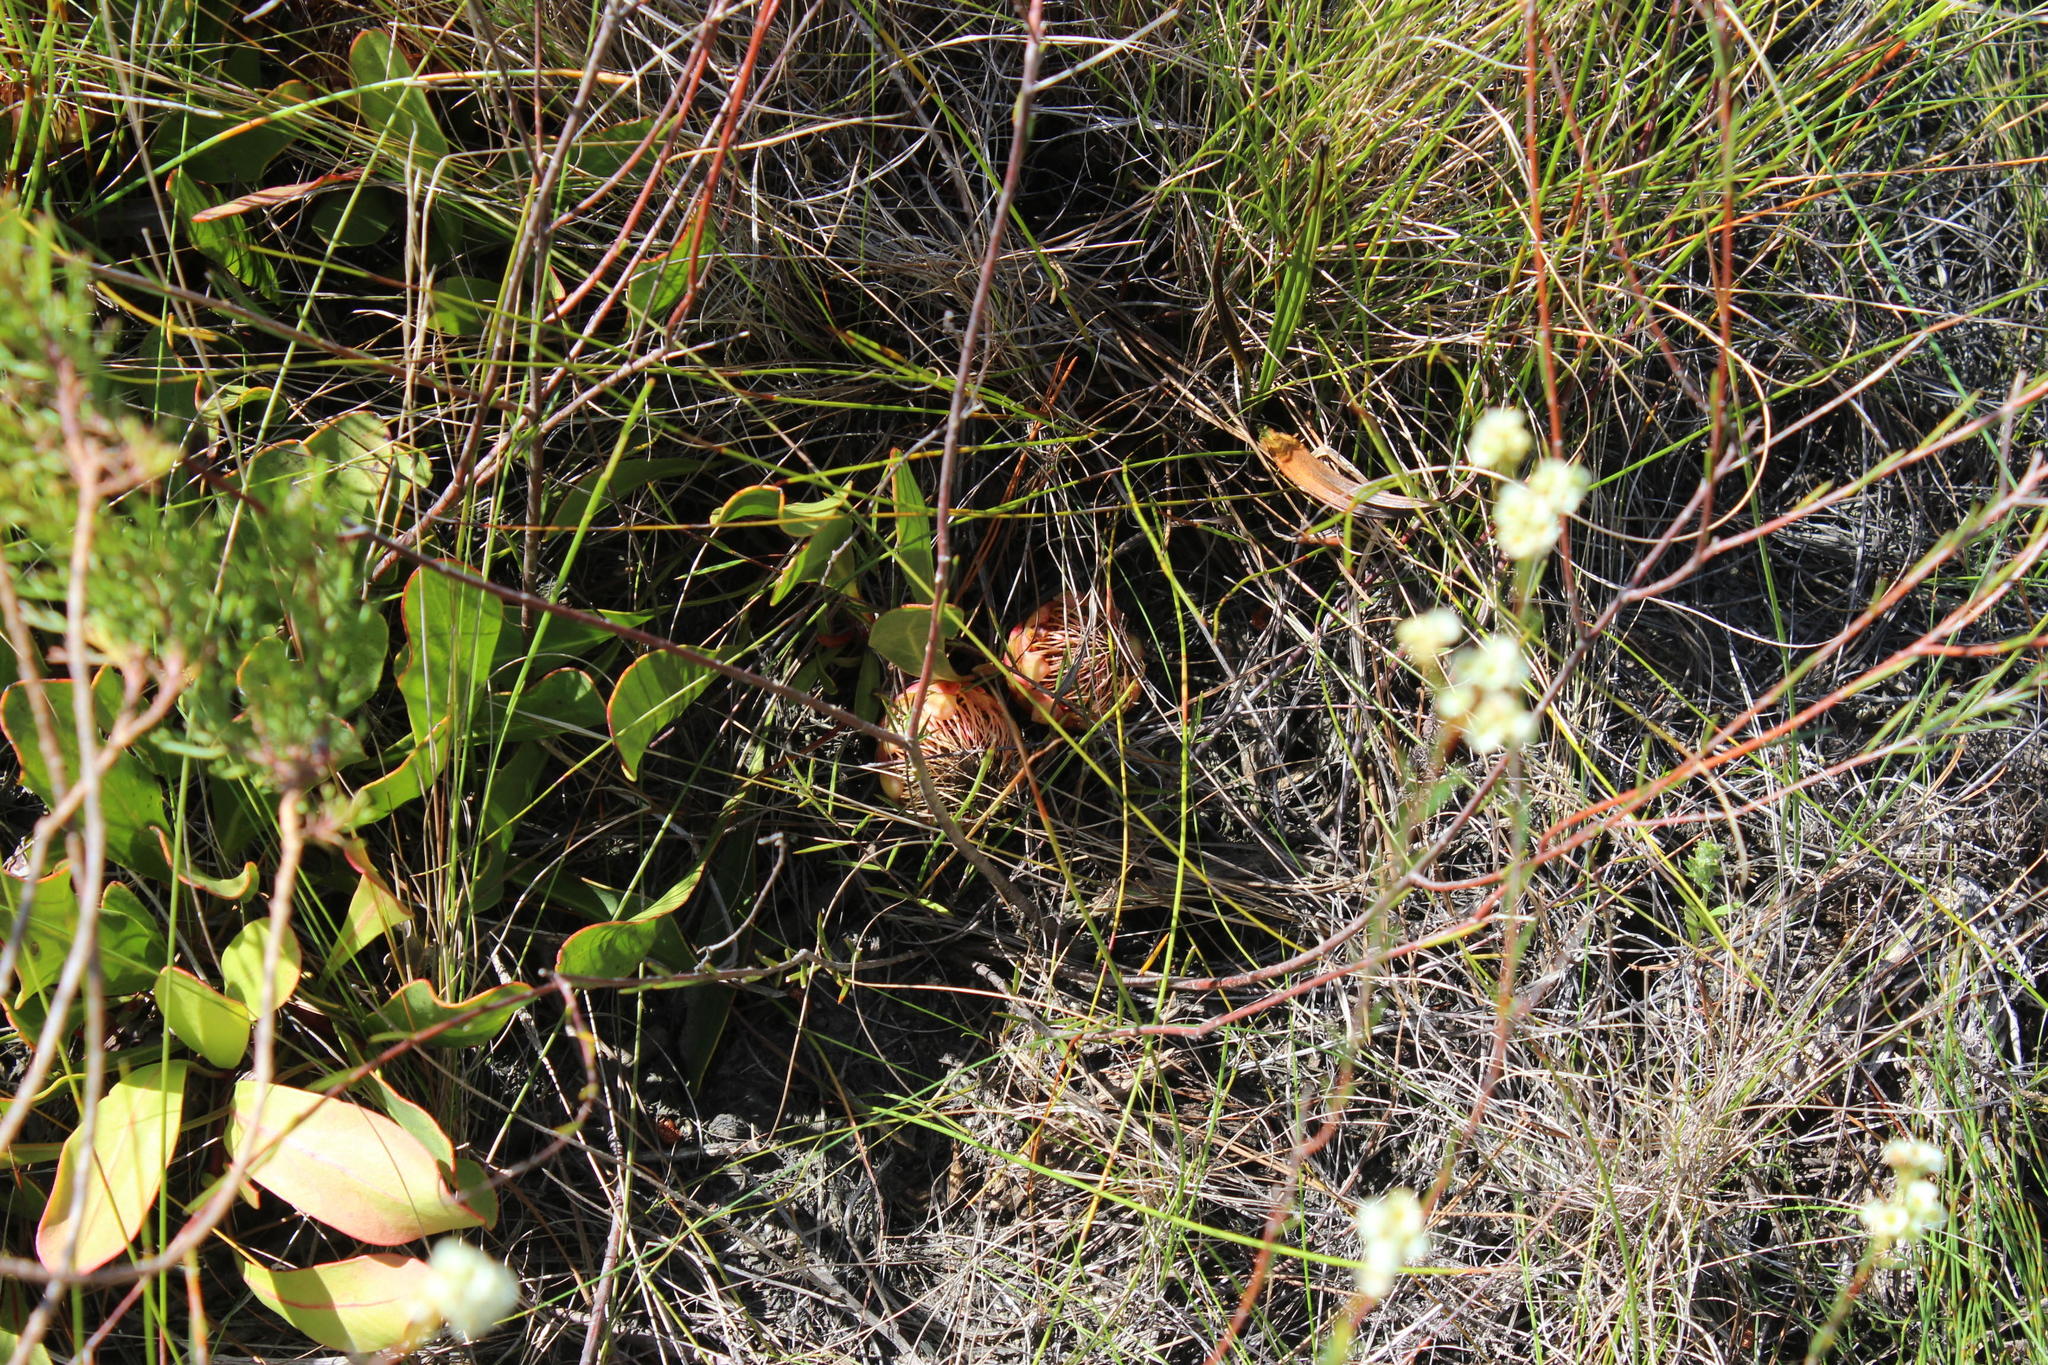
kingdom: Plantae
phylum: Tracheophyta
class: Magnoliopsida
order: Proteales
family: Proteaceae
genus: Protea
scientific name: Protea acaulos
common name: Common ground sugarbush
